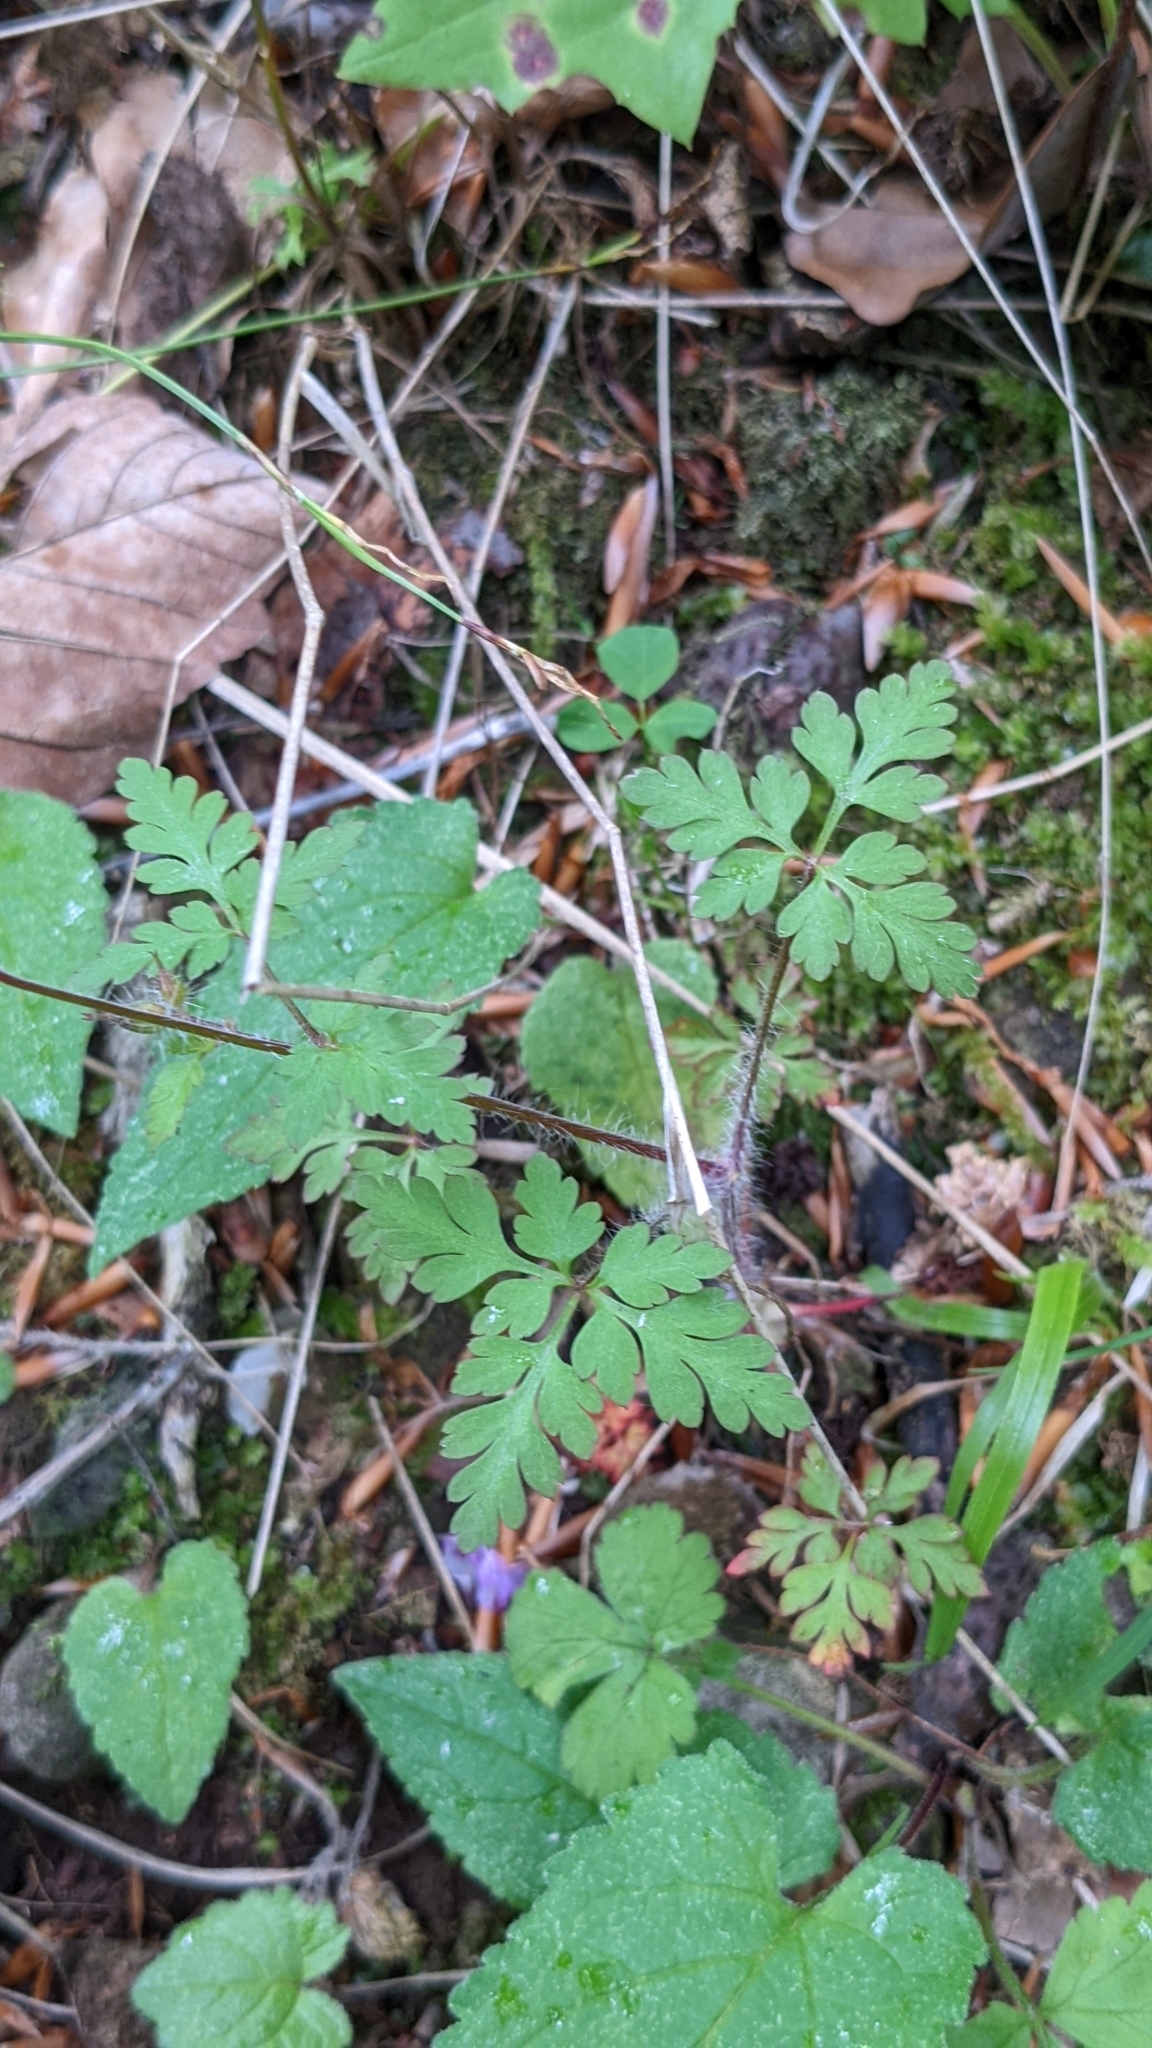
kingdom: Plantae
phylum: Tracheophyta
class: Magnoliopsida
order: Geraniales
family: Geraniaceae
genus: Geranium
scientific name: Geranium robertianum
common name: Herb-robert
